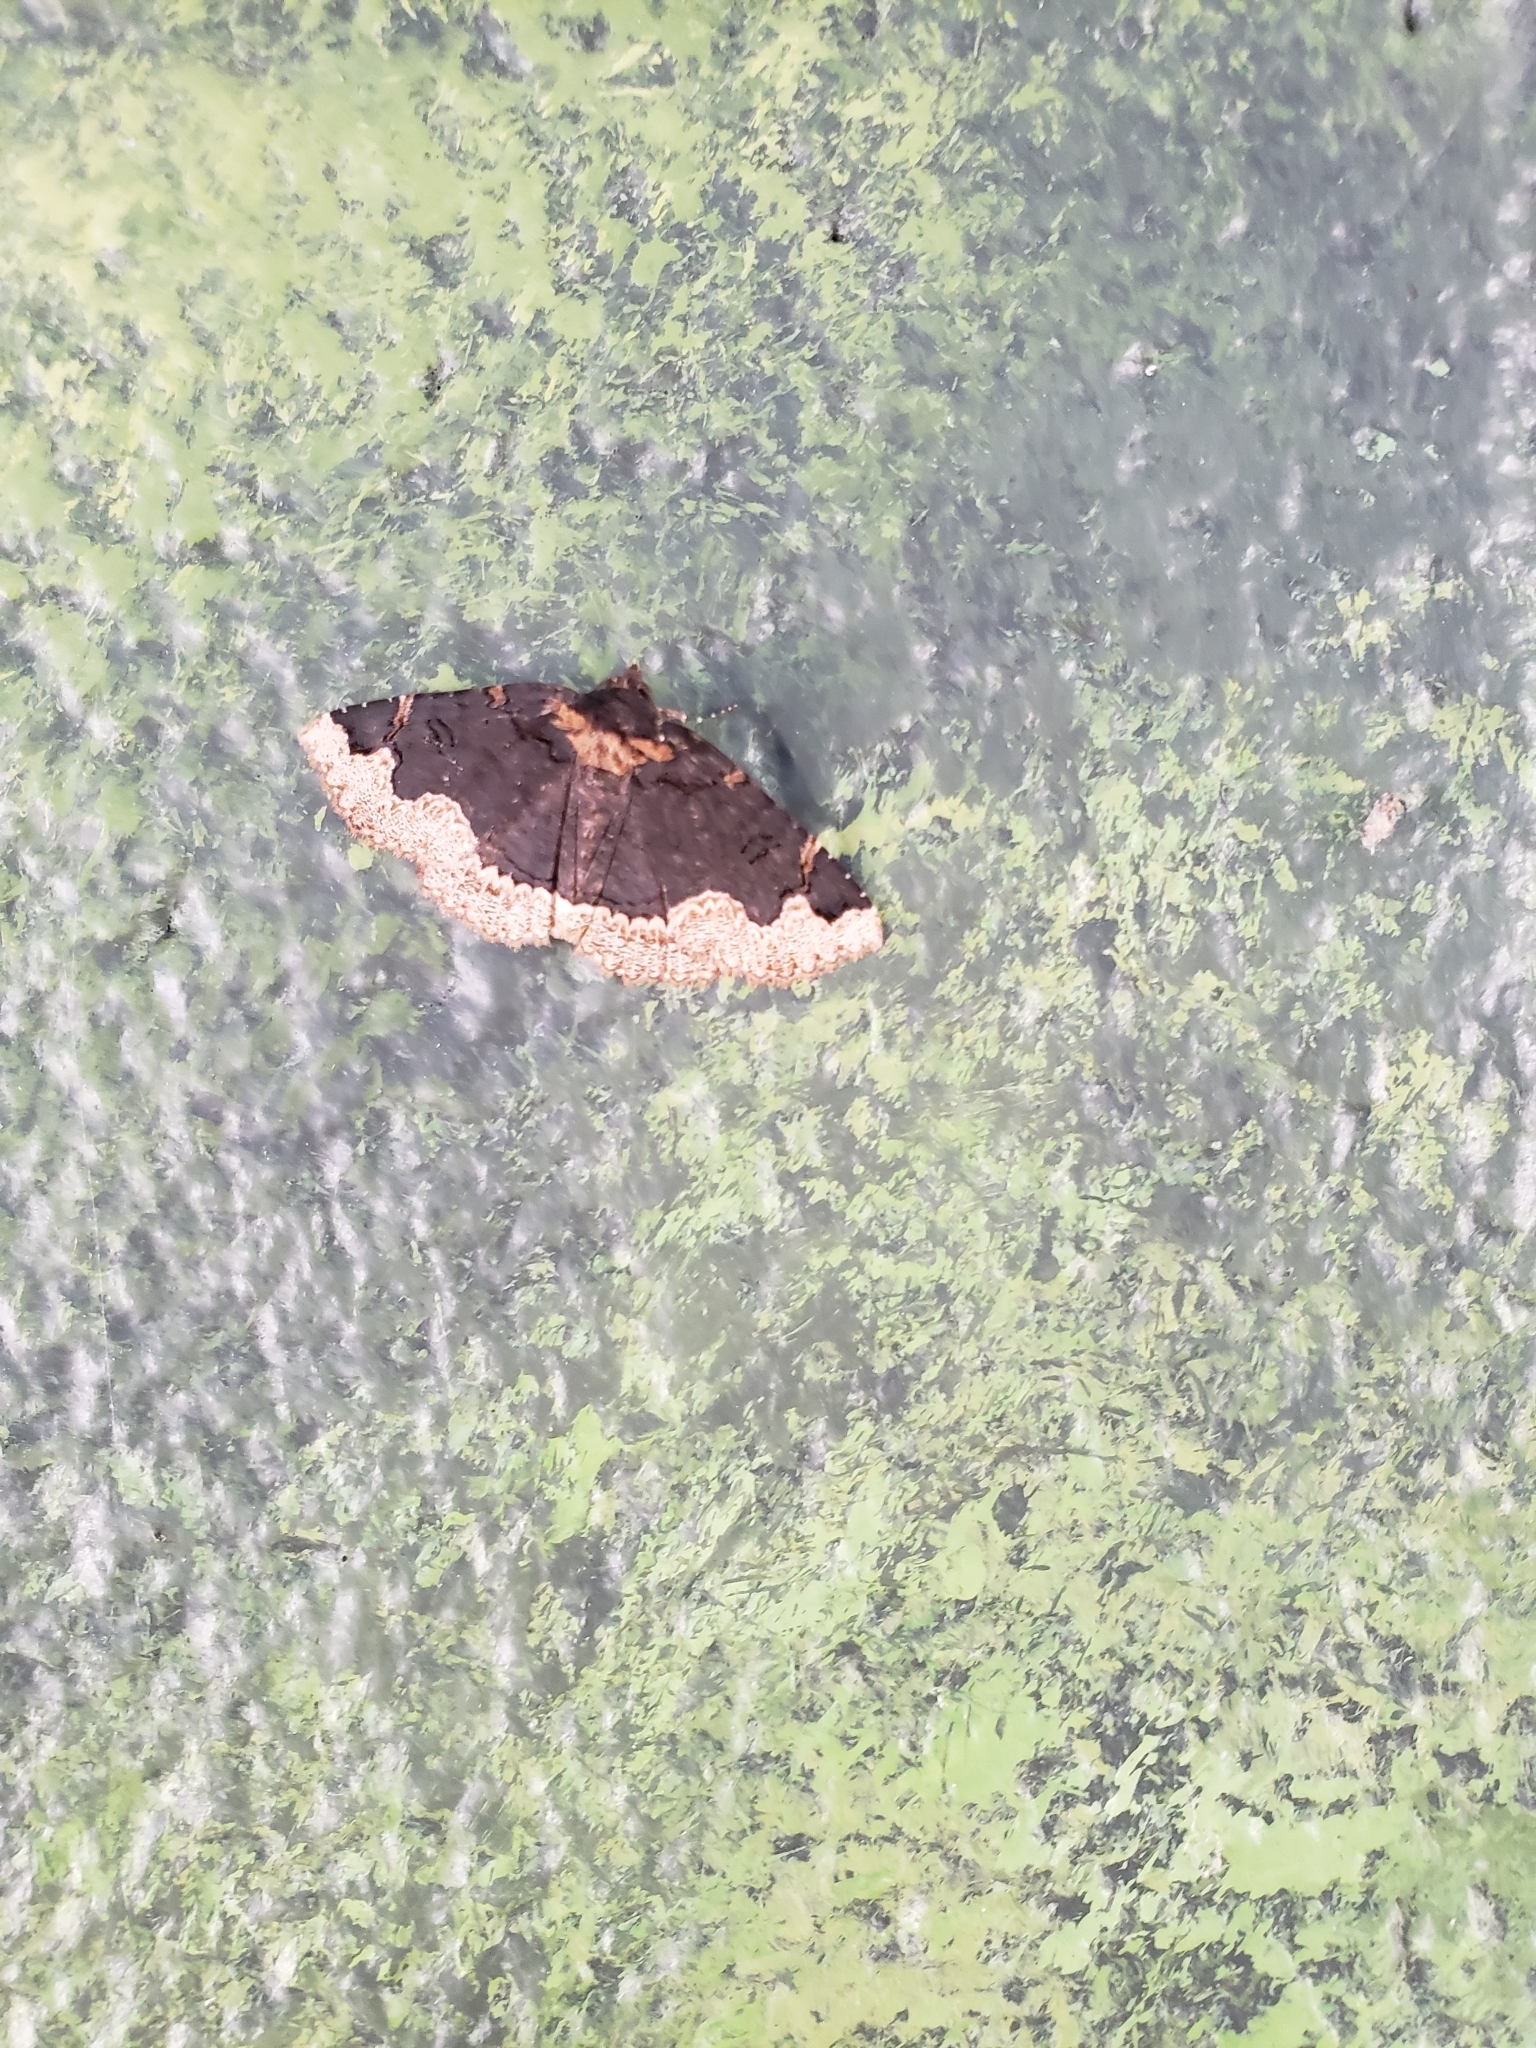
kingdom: Animalia
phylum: Arthropoda
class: Insecta
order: Lepidoptera
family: Erebidae
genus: Zale
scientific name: Zale horrida
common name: Horrid zale moth
